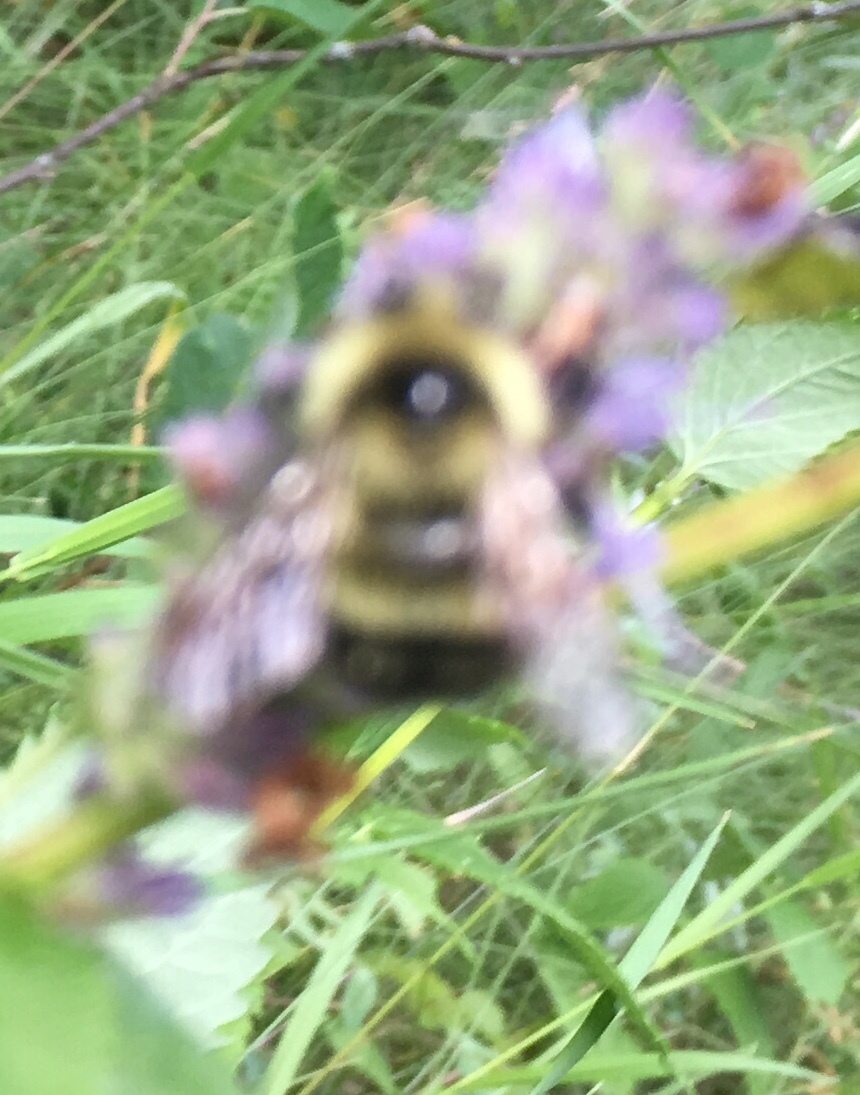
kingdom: Animalia
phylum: Arthropoda
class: Insecta
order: Hymenoptera
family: Apidae
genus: Pyrobombus
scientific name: Pyrobombus
